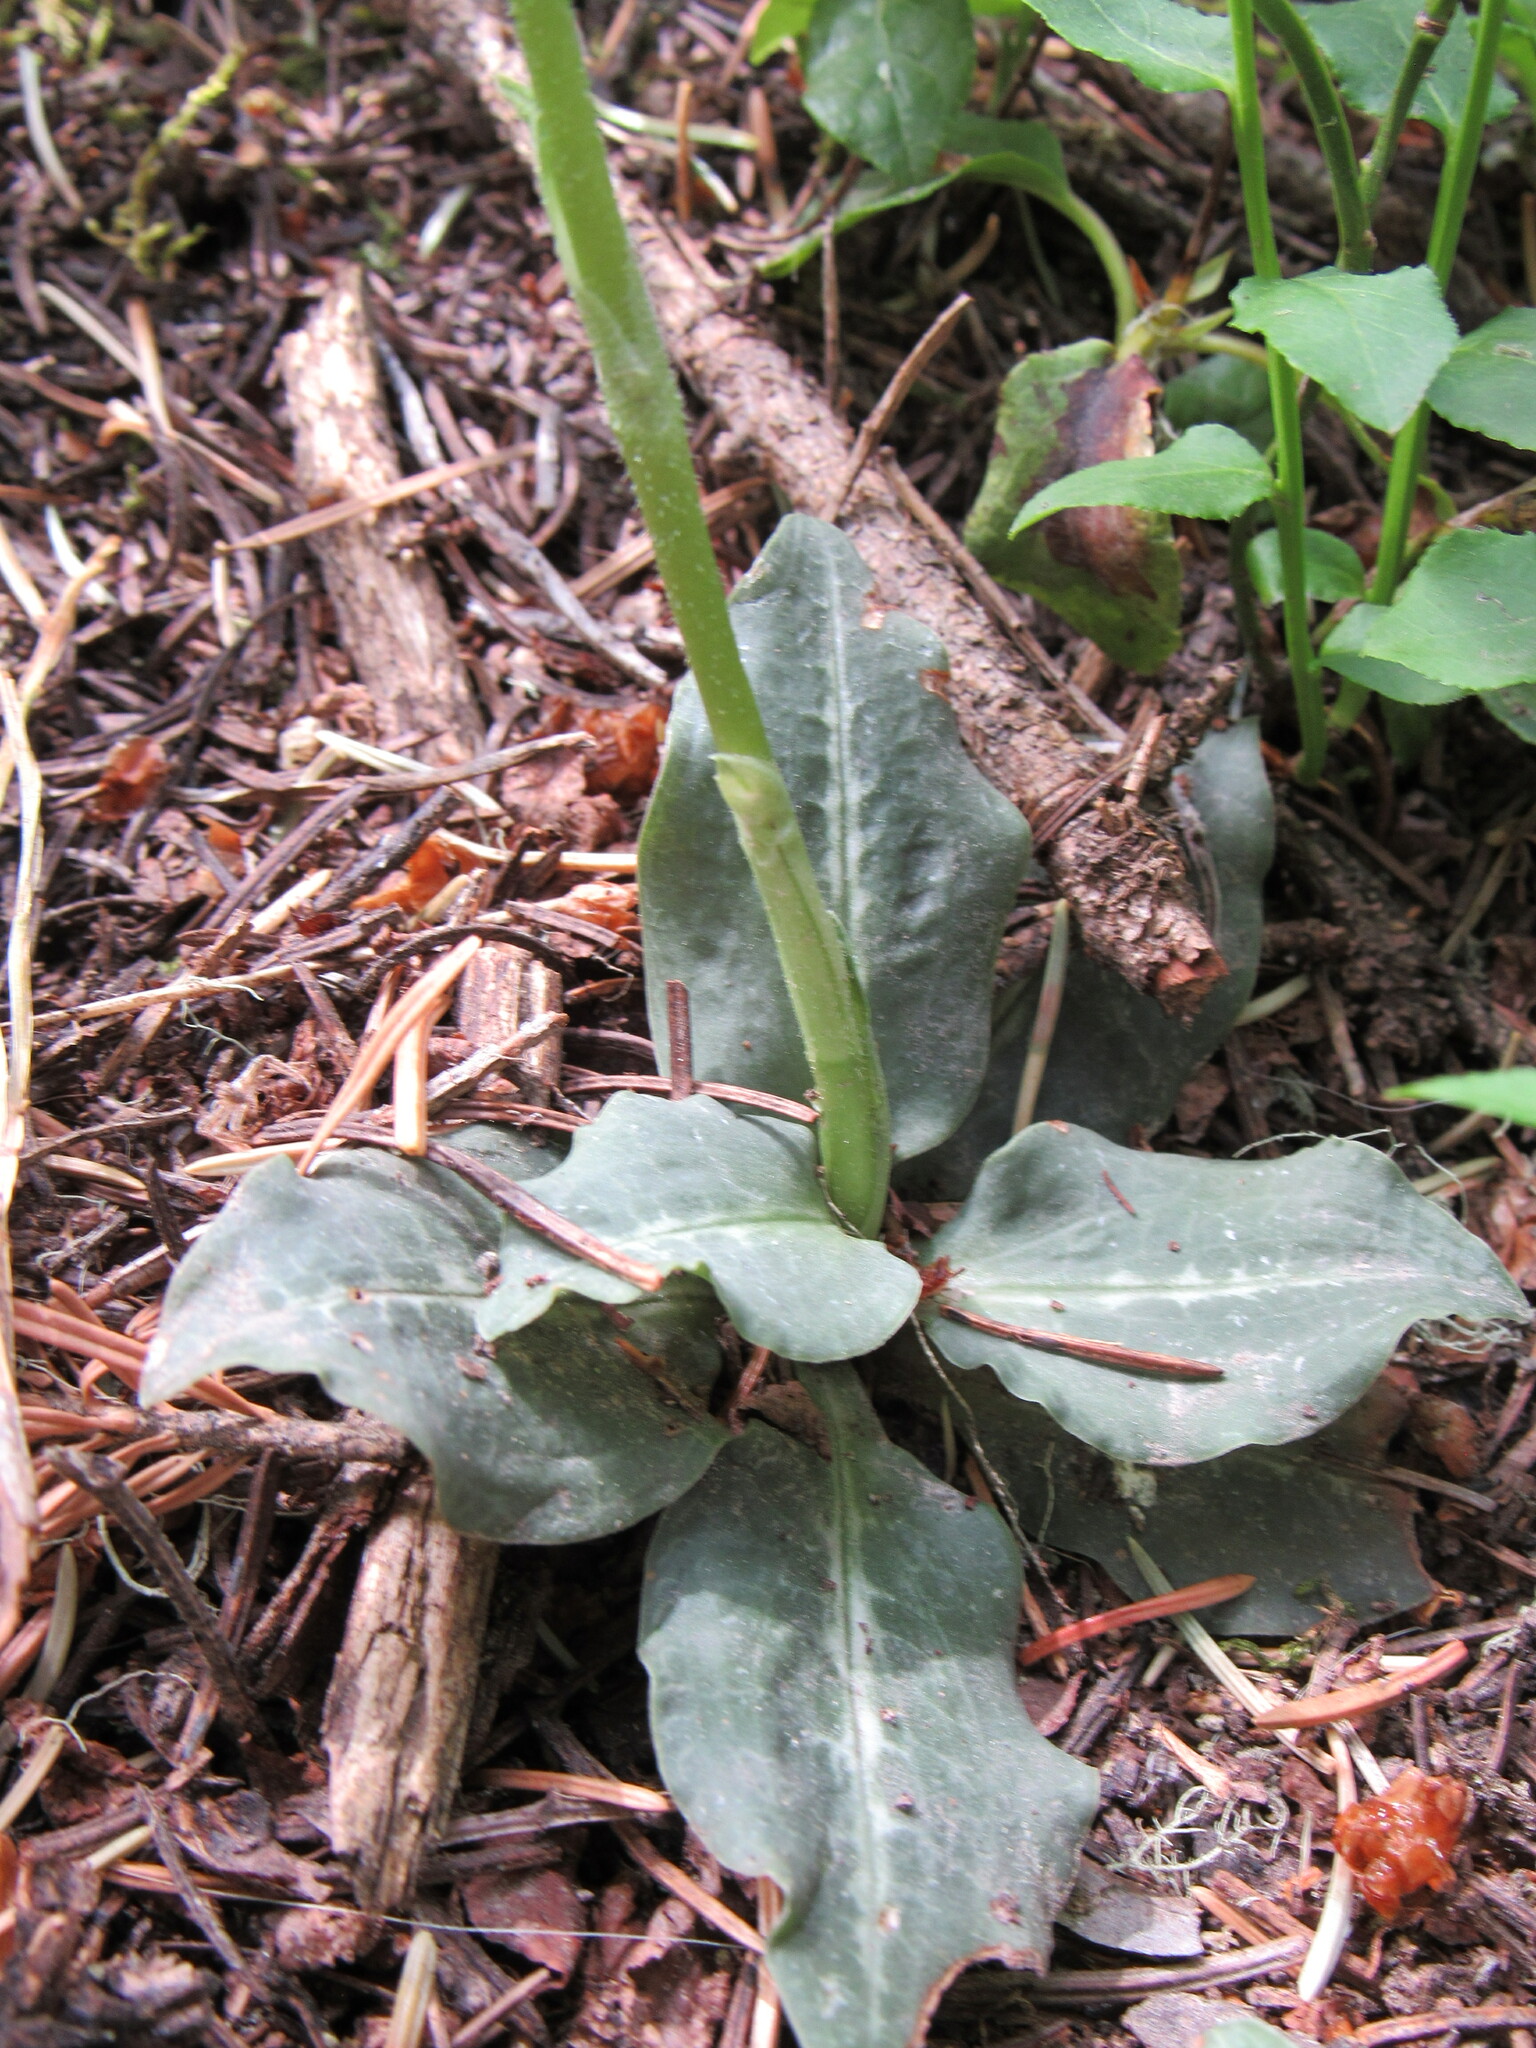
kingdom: Plantae
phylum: Tracheophyta
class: Liliopsida
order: Asparagales
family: Orchidaceae
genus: Goodyera
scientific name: Goodyera oblongifolia
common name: Giant rattlesnake-plantain
